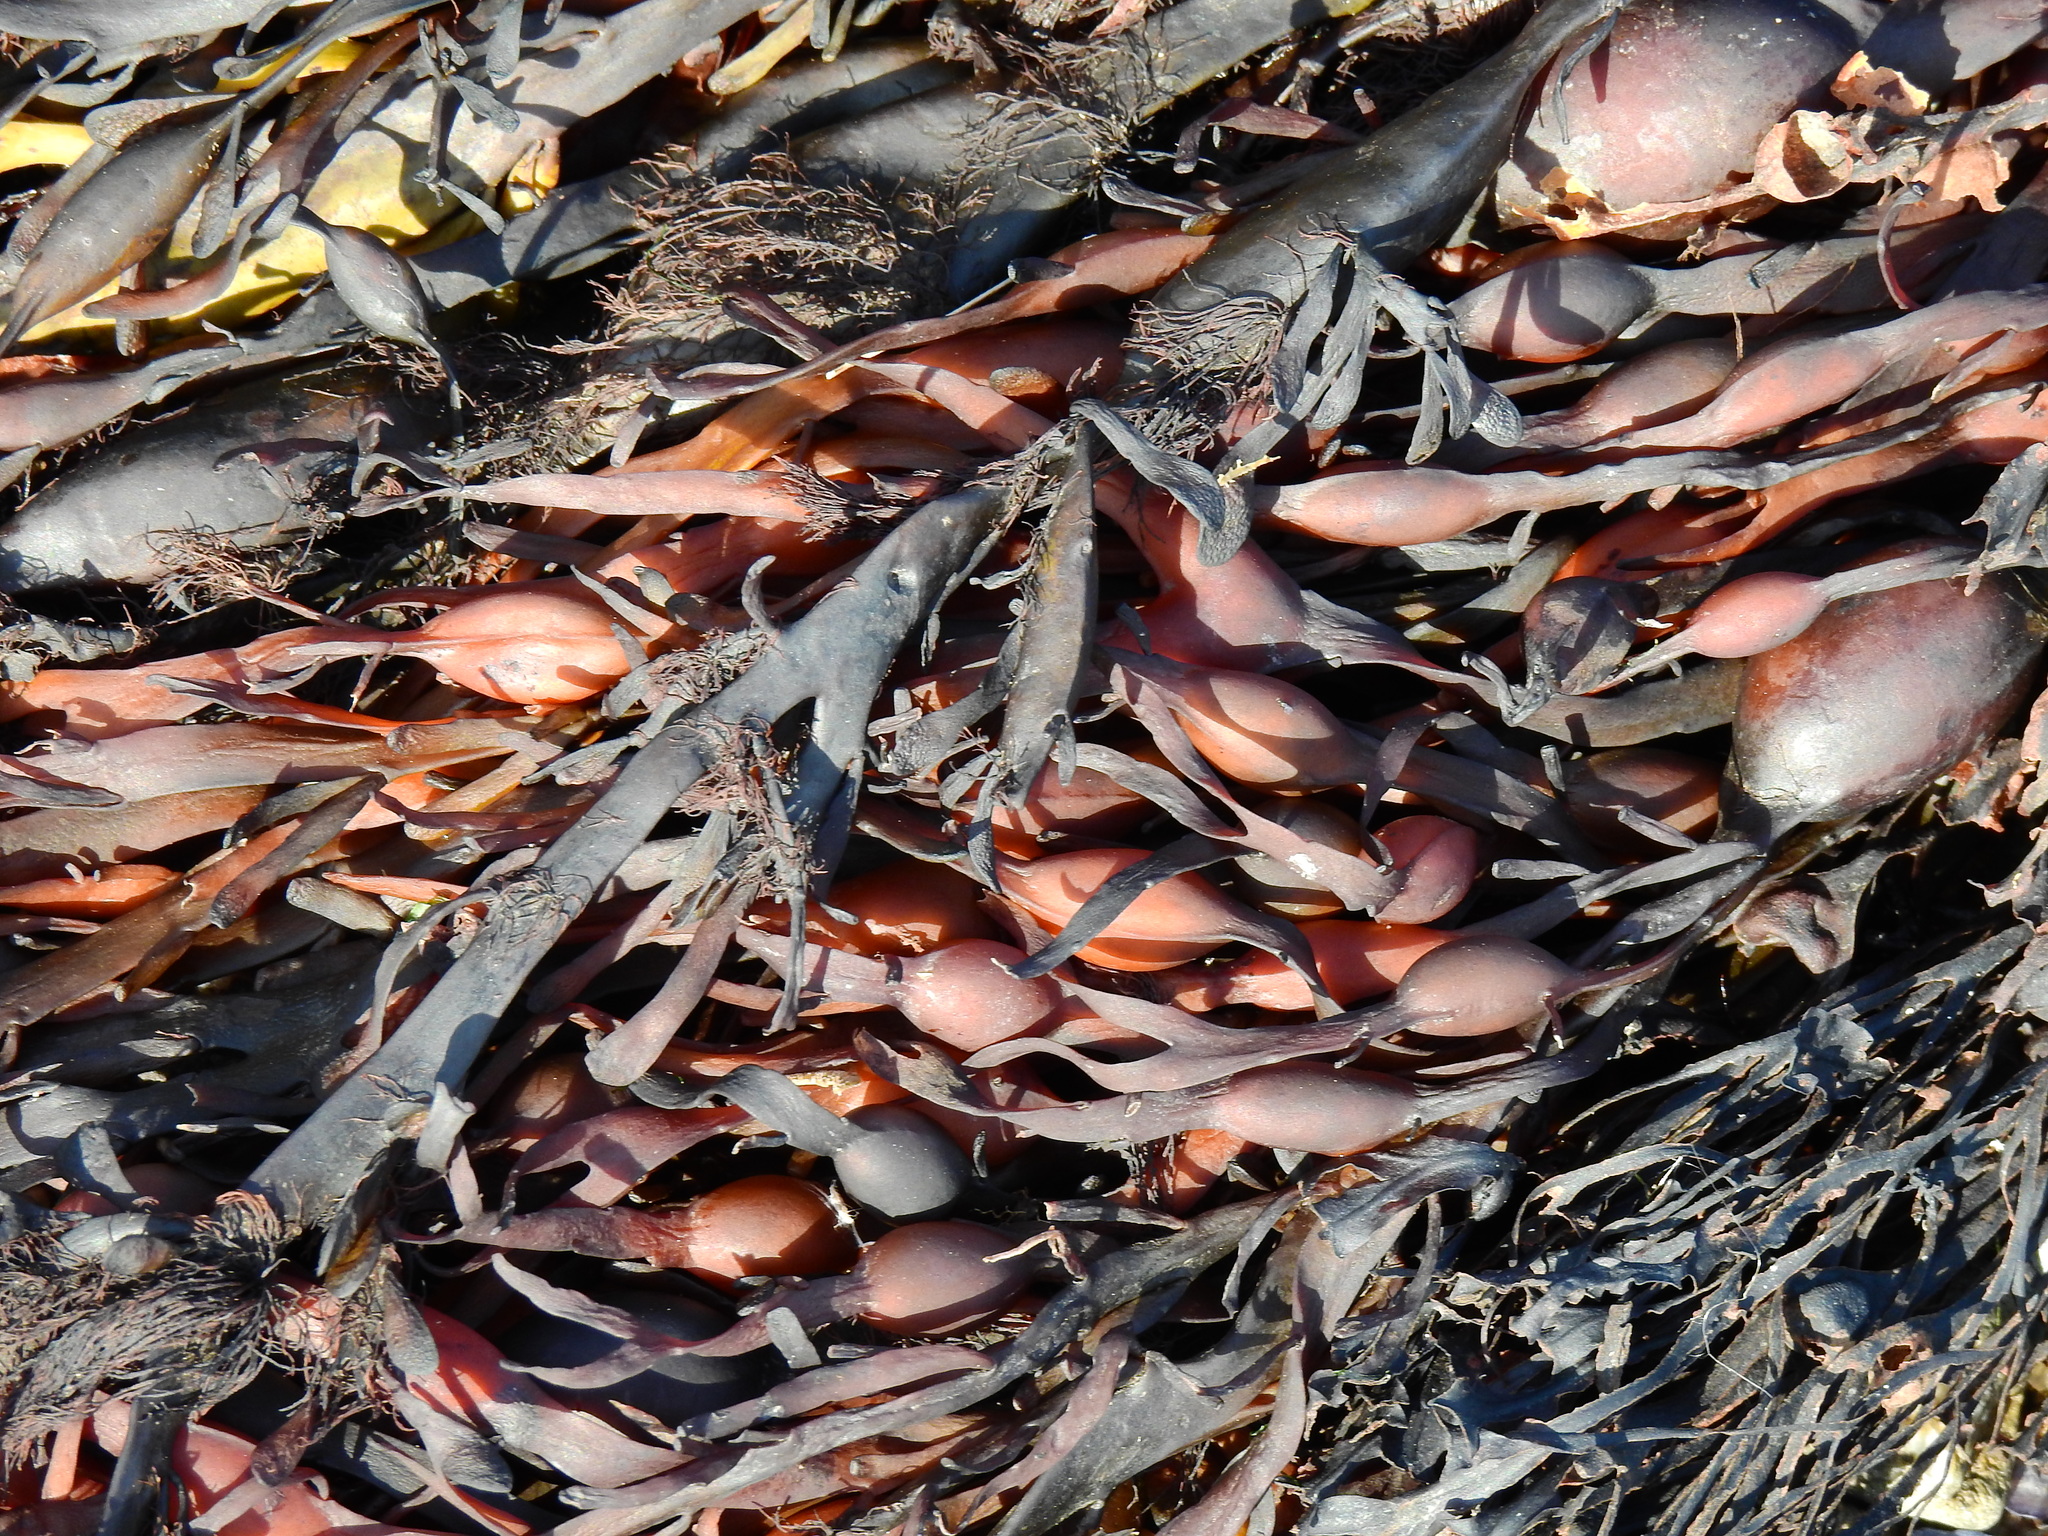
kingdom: Chromista
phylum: Ochrophyta
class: Phaeophyceae
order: Fucales
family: Fucaceae
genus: Ascophyllum
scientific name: Ascophyllum nodosum
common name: Knotted wrack
